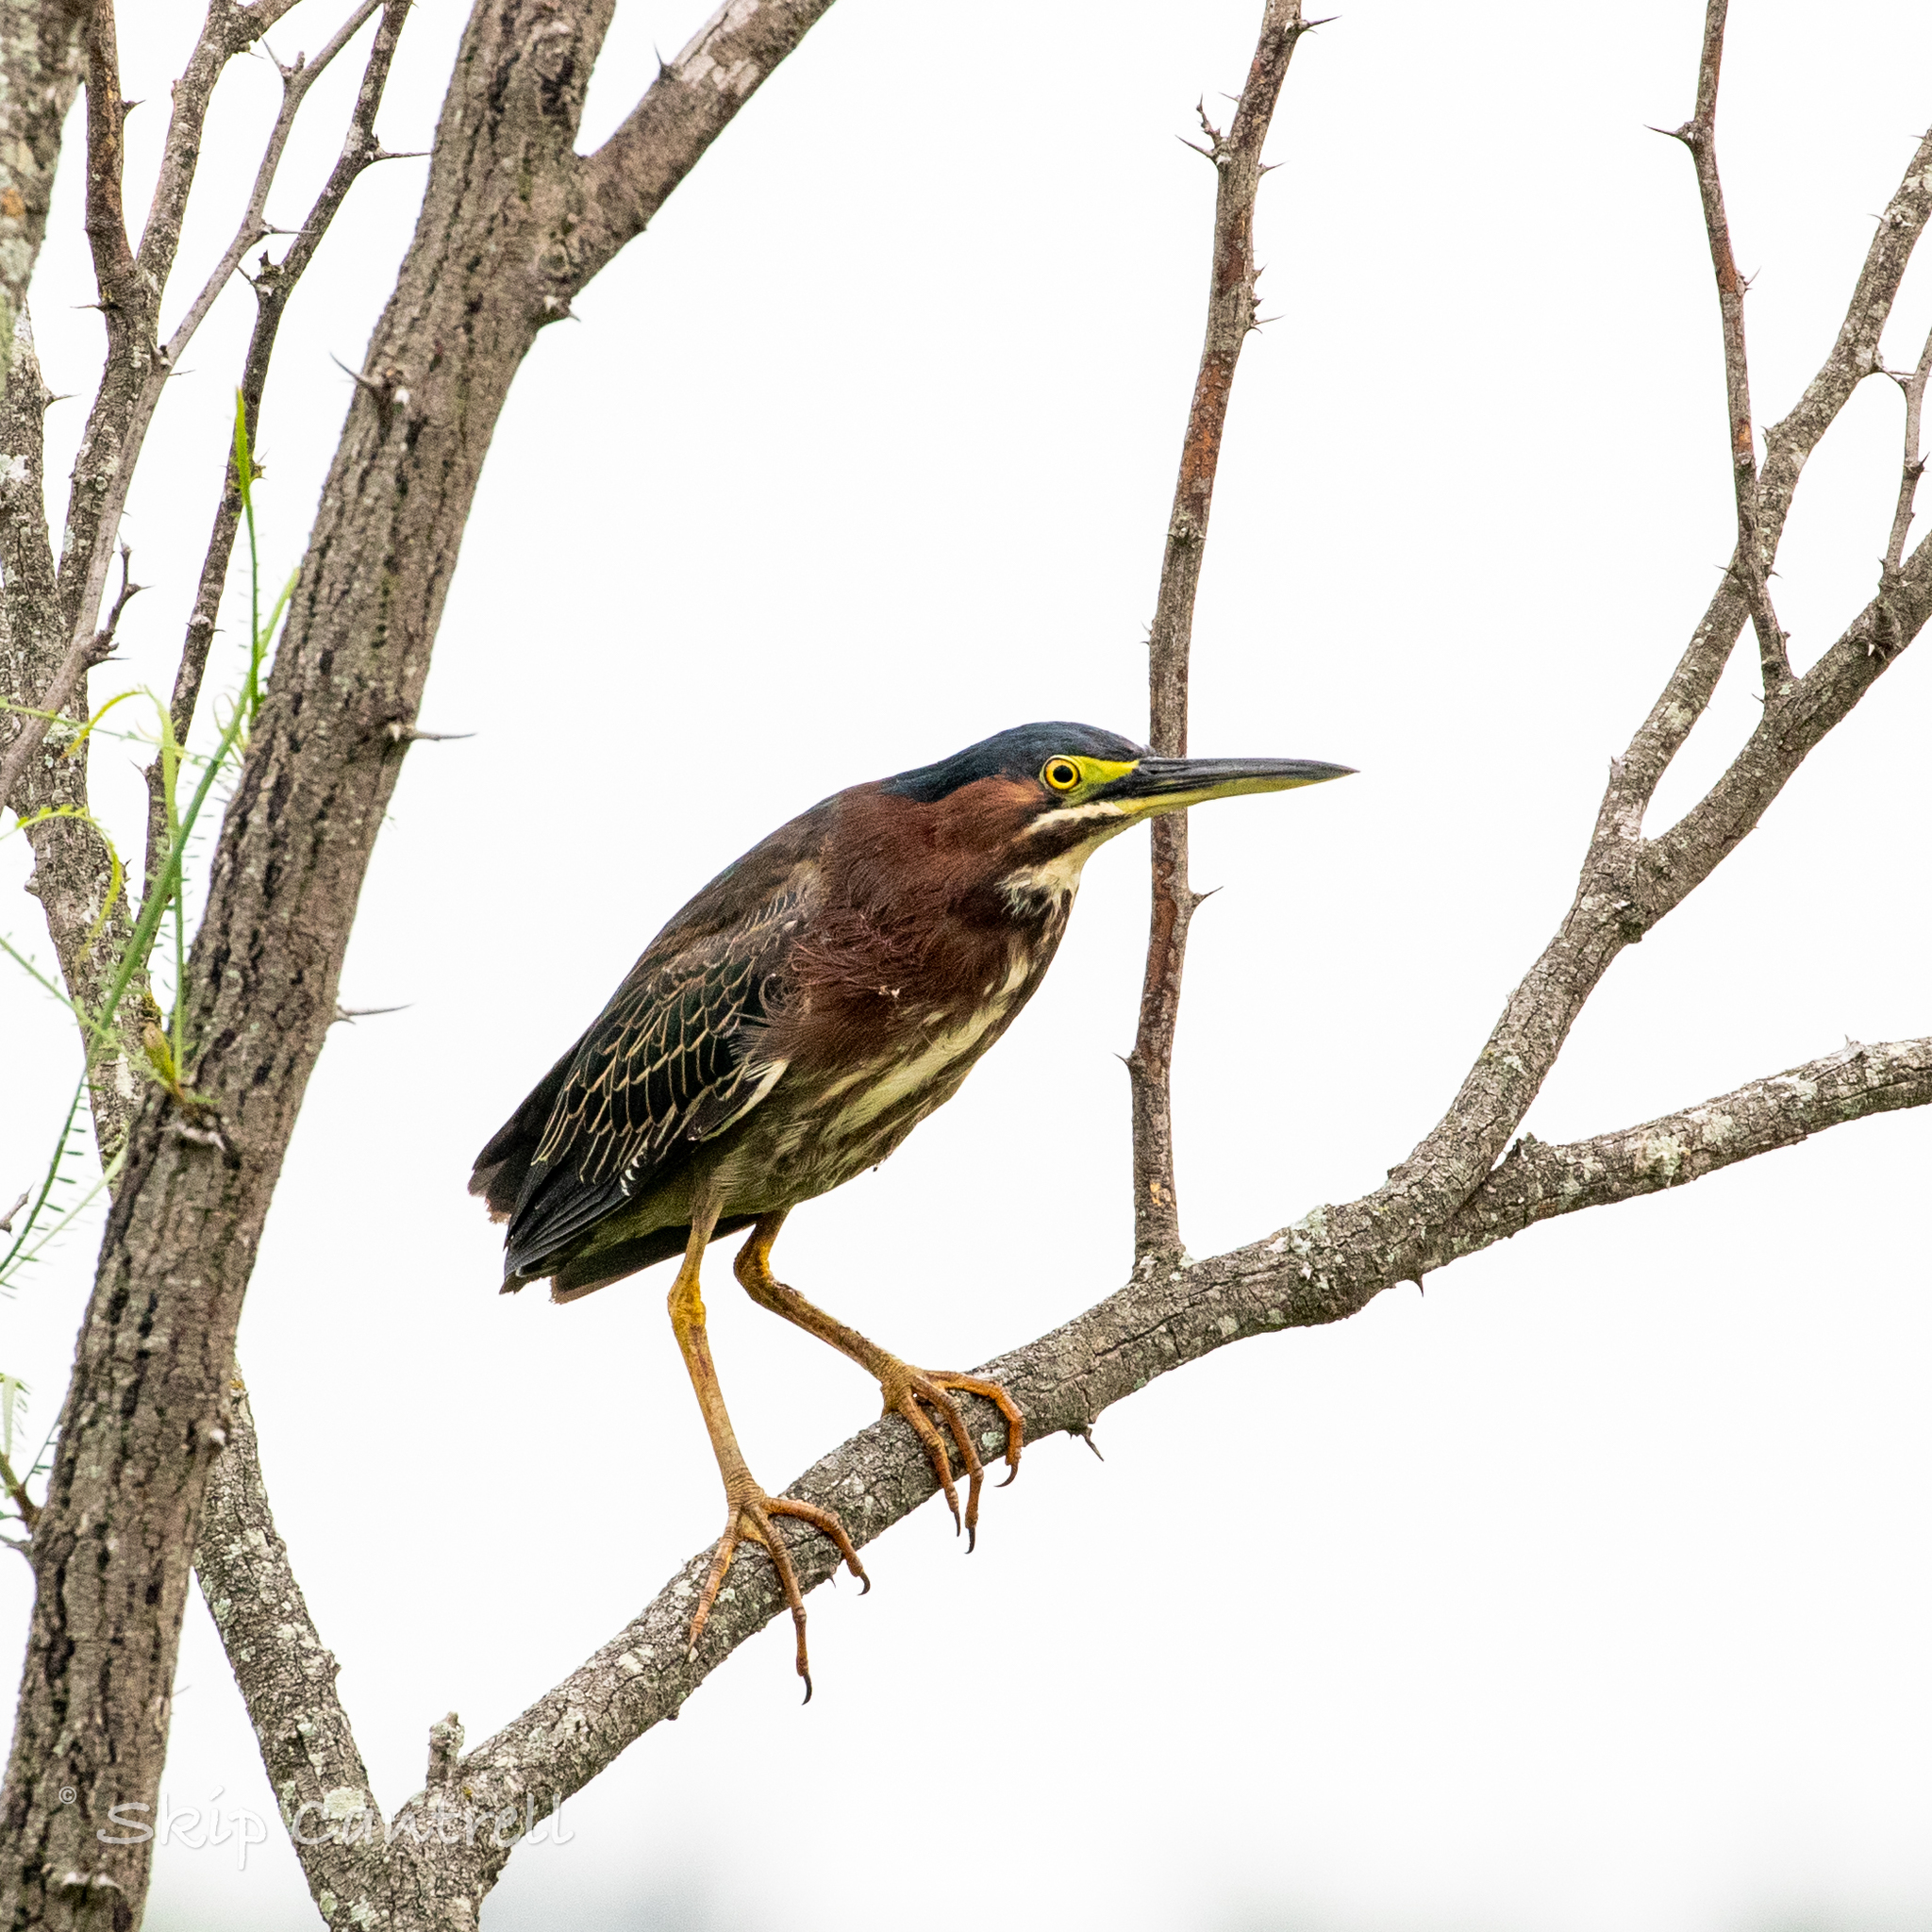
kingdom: Animalia
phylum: Chordata
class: Aves
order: Pelecaniformes
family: Ardeidae
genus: Butorides
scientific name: Butorides virescens
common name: Green heron
